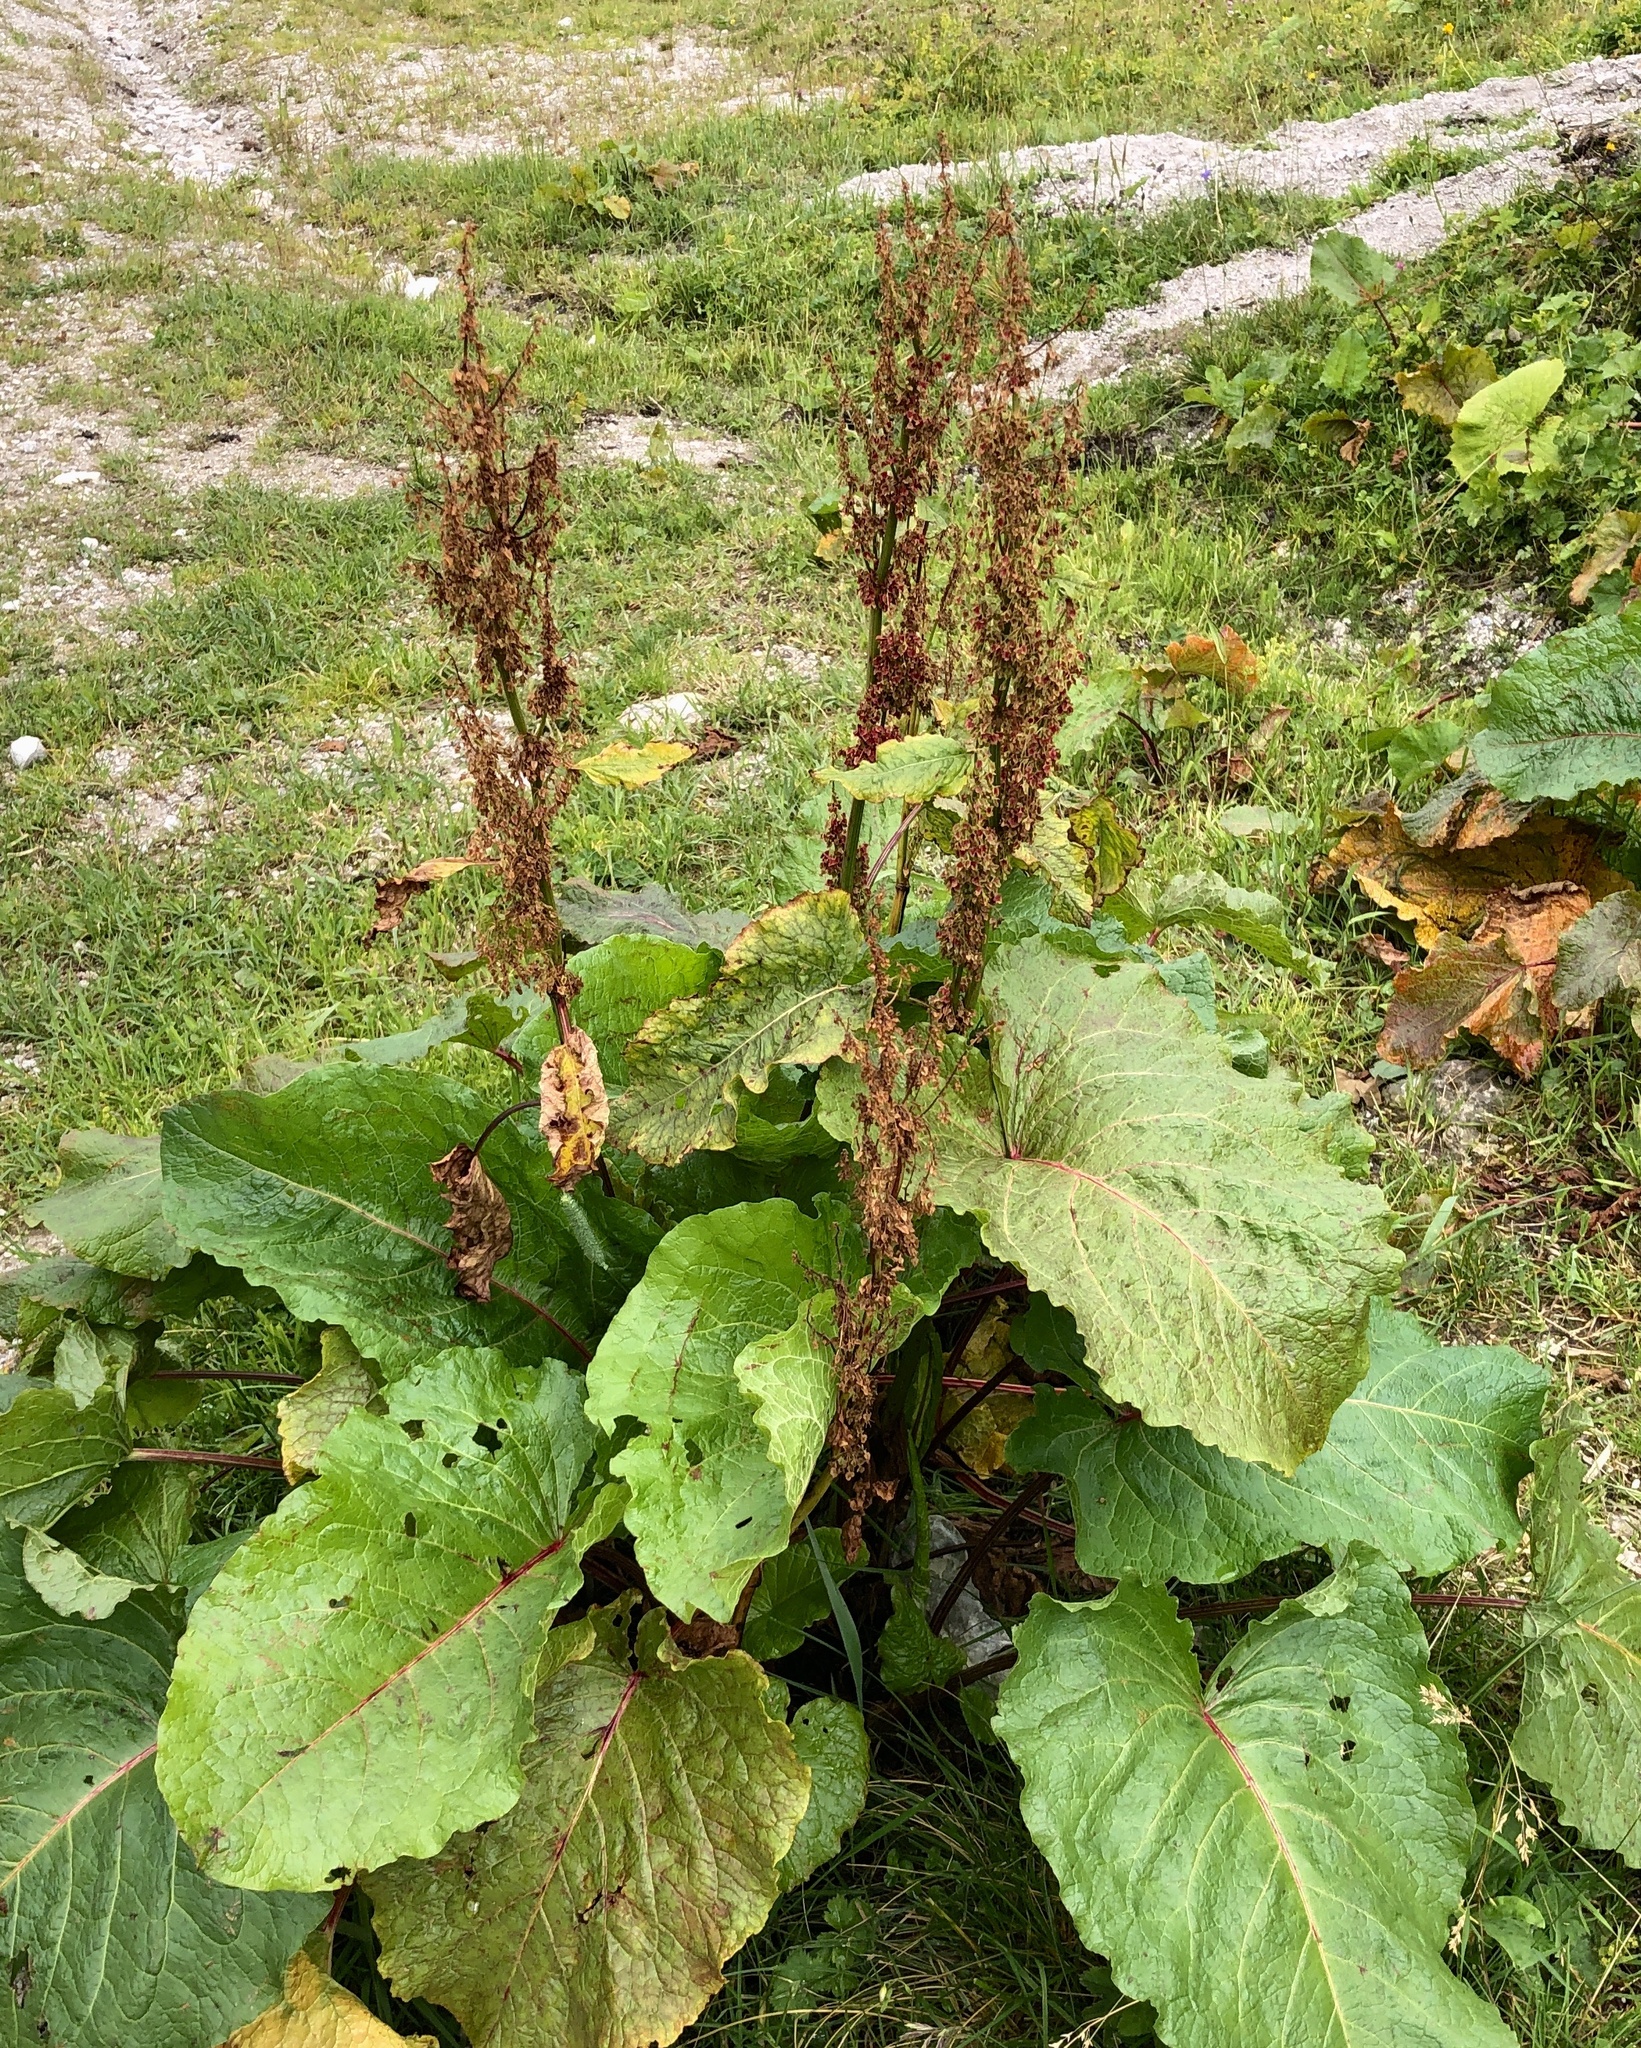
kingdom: Plantae
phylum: Tracheophyta
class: Magnoliopsida
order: Caryophyllales
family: Polygonaceae
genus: Rumex
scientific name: Rumex alpinus
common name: Alpine dock
